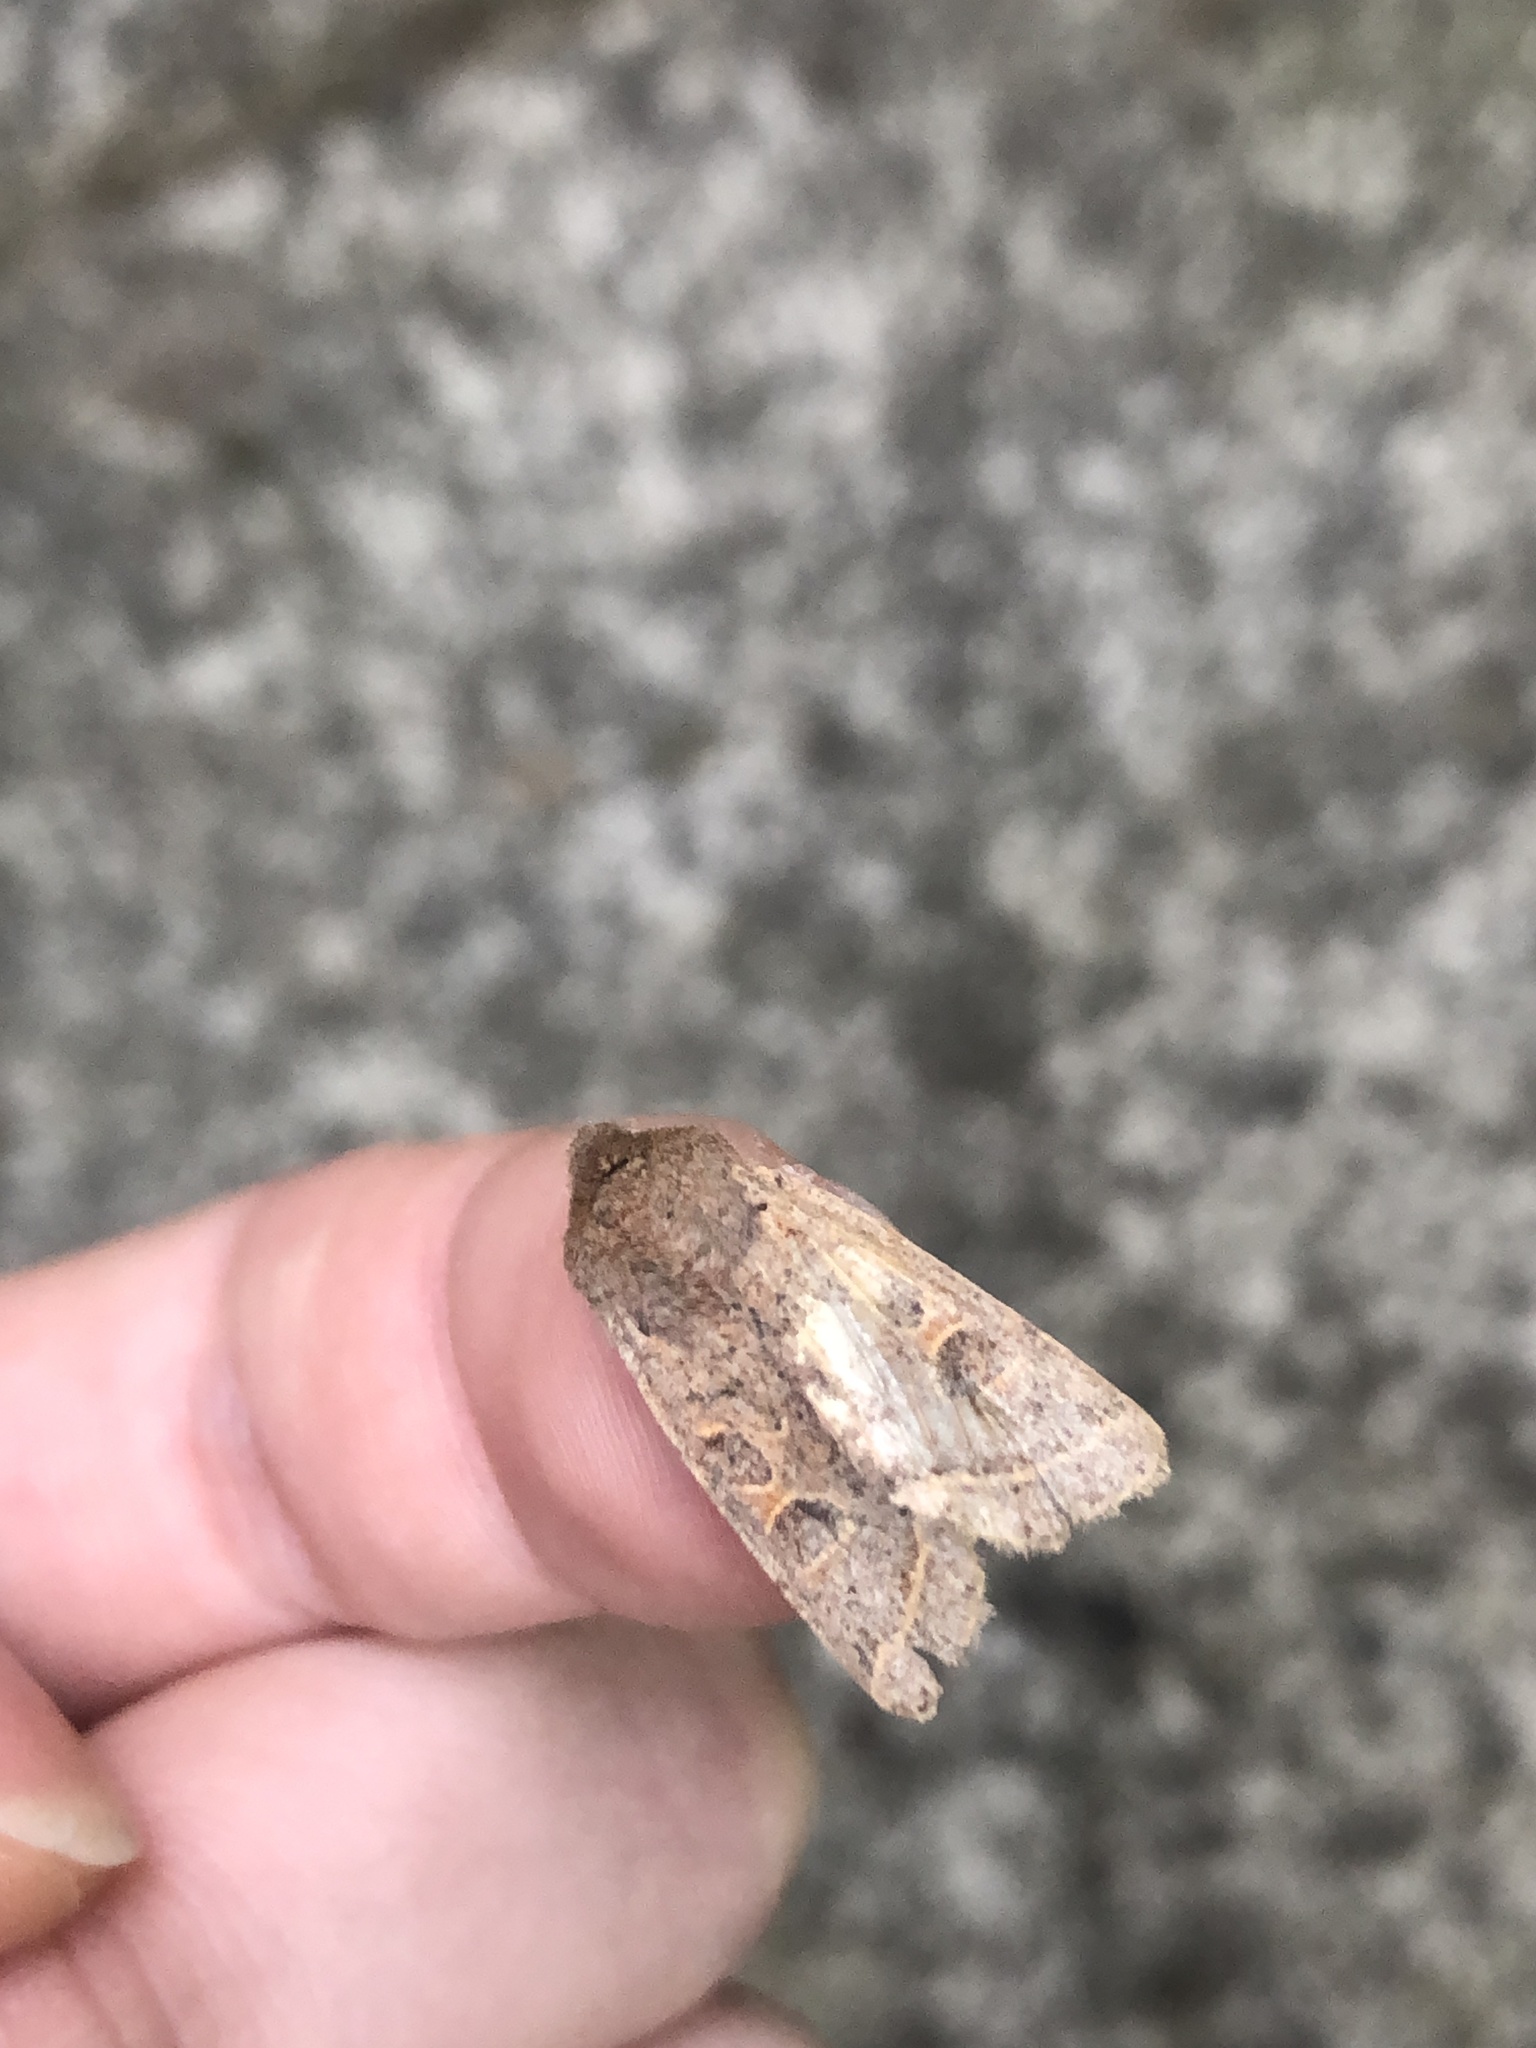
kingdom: Animalia
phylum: Arthropoda
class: Insecta
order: Lepidoptera
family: Noctuidae
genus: Orthosia
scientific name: Orthosia populeti
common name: Lead-coloured drab
